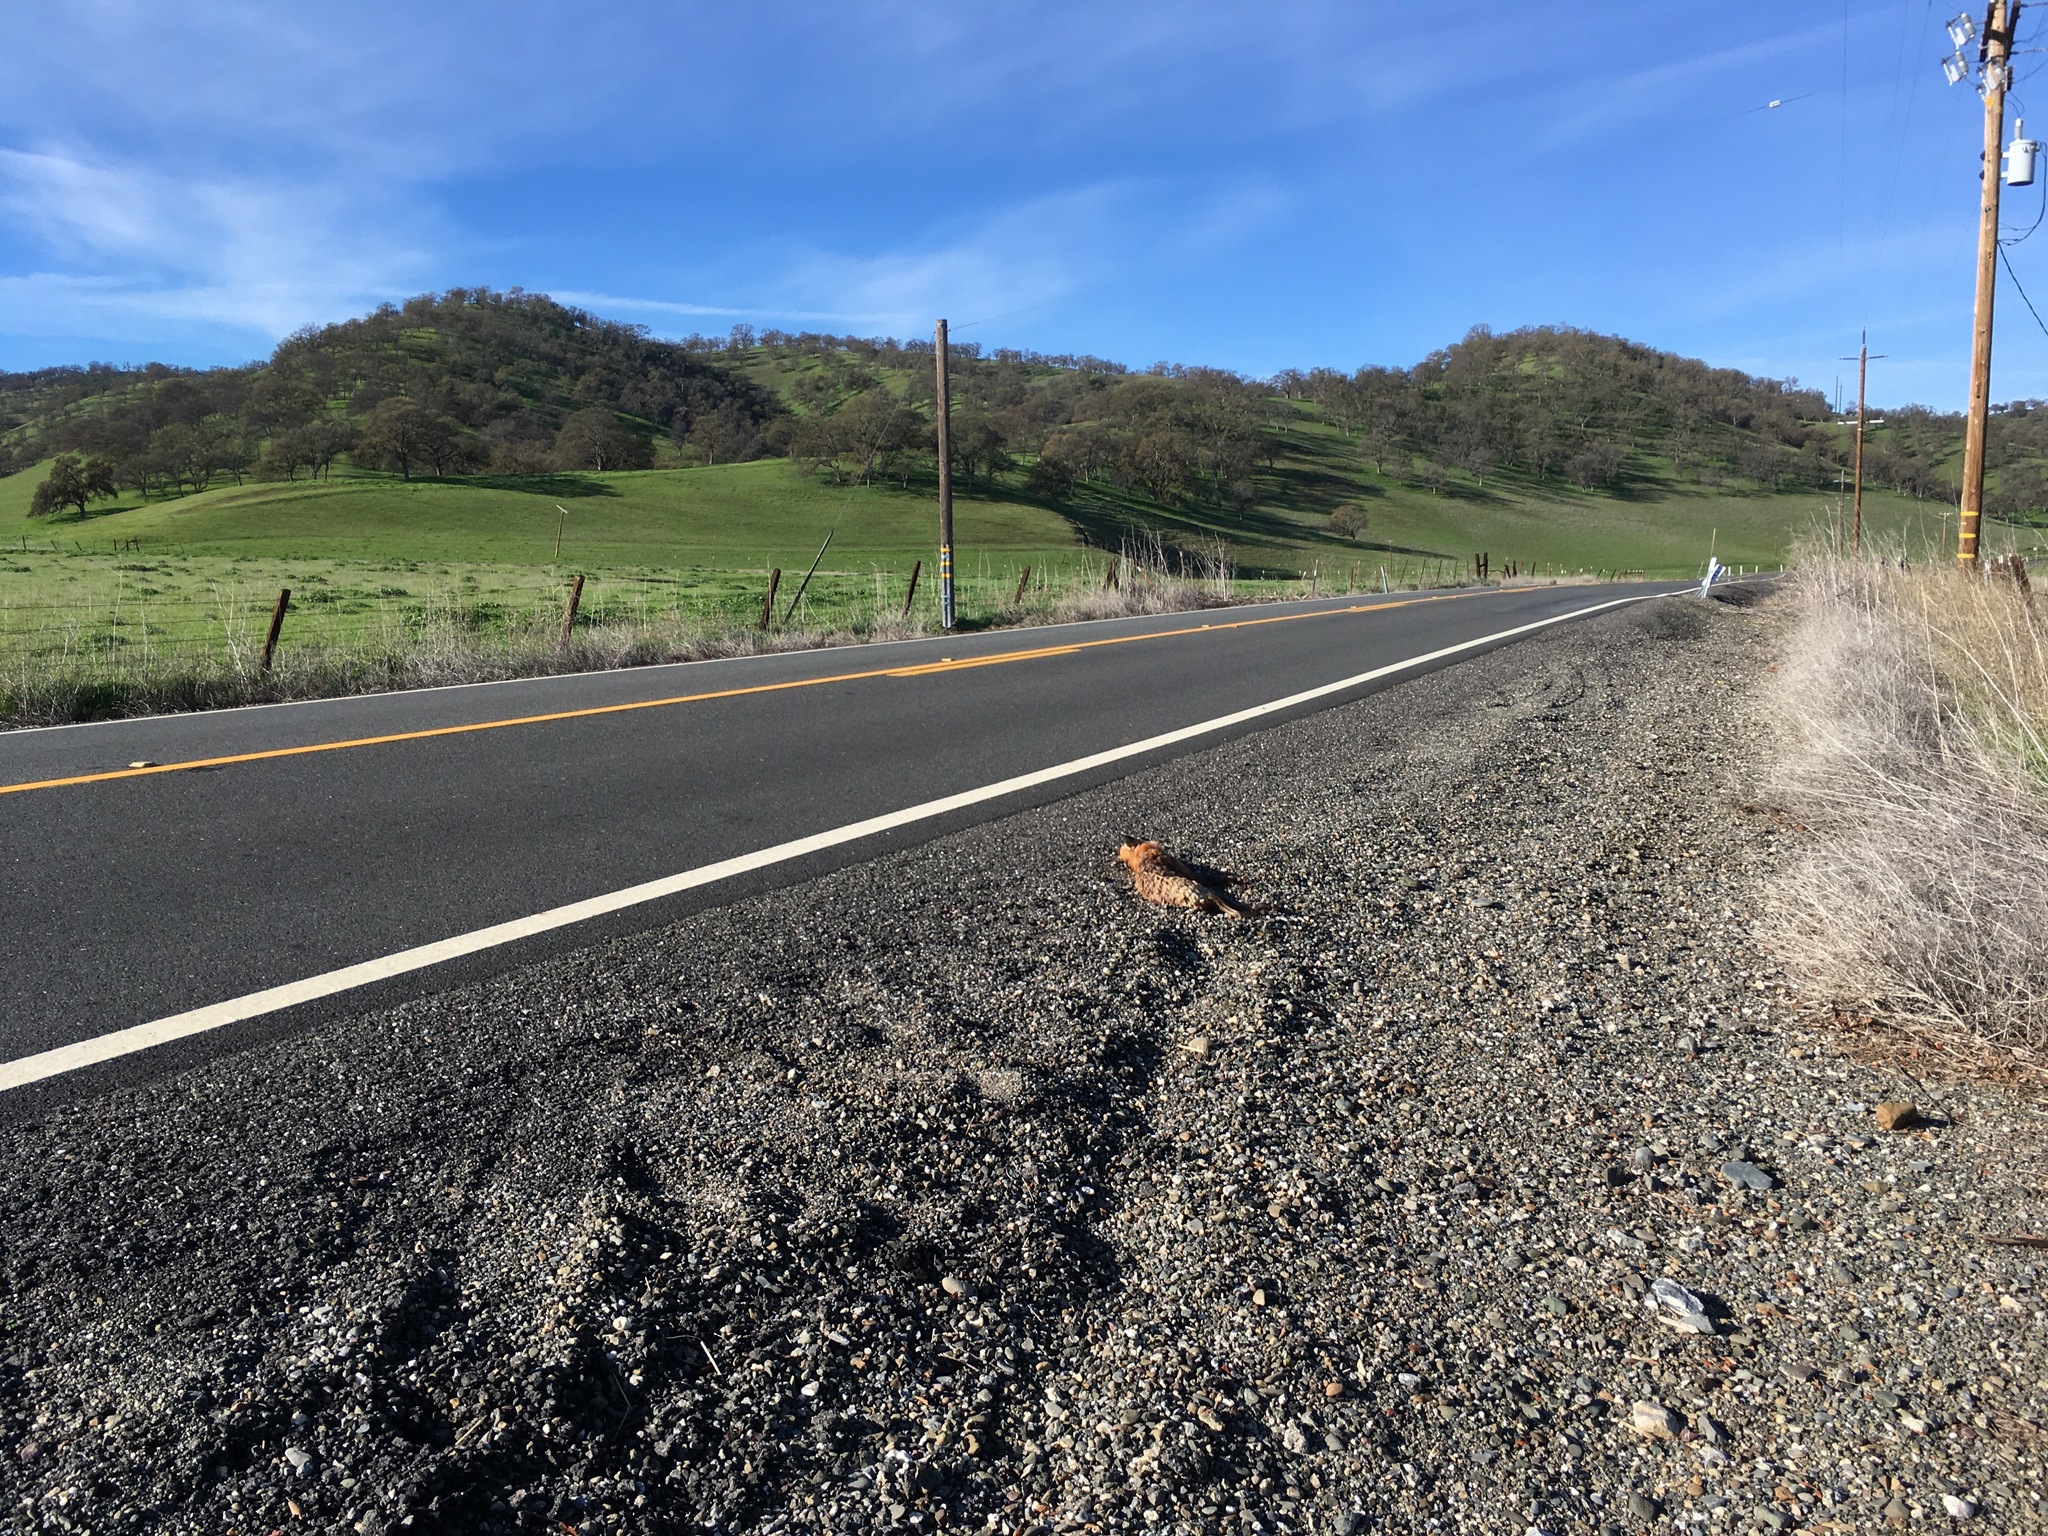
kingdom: Animalia
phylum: Chordata
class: Mammalia
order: Carnivora
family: Canidae
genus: Vulpes
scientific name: Vulpes vulpes
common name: Red fox
